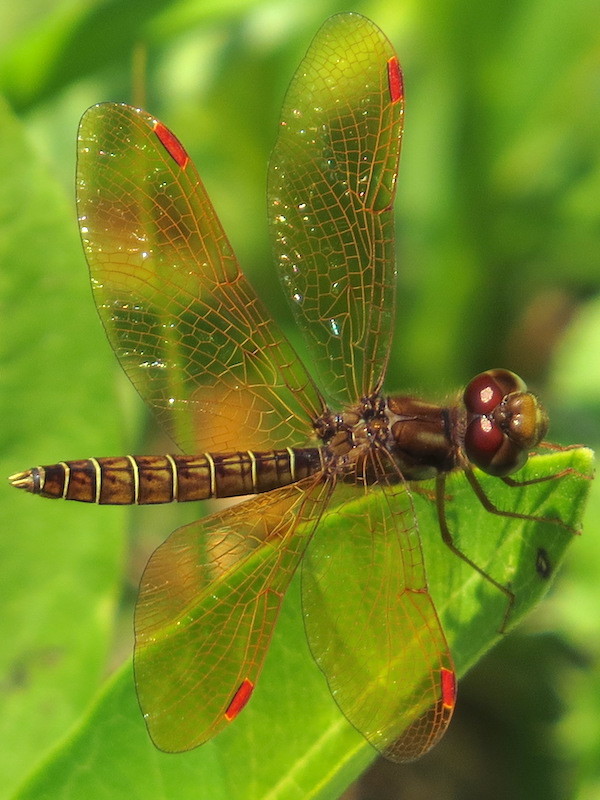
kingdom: Animalia
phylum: Arthropoda
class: Insecta
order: Odonata
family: Libellulidae
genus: Perithemis
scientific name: Perithemis tenera
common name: Eastern amberwing
